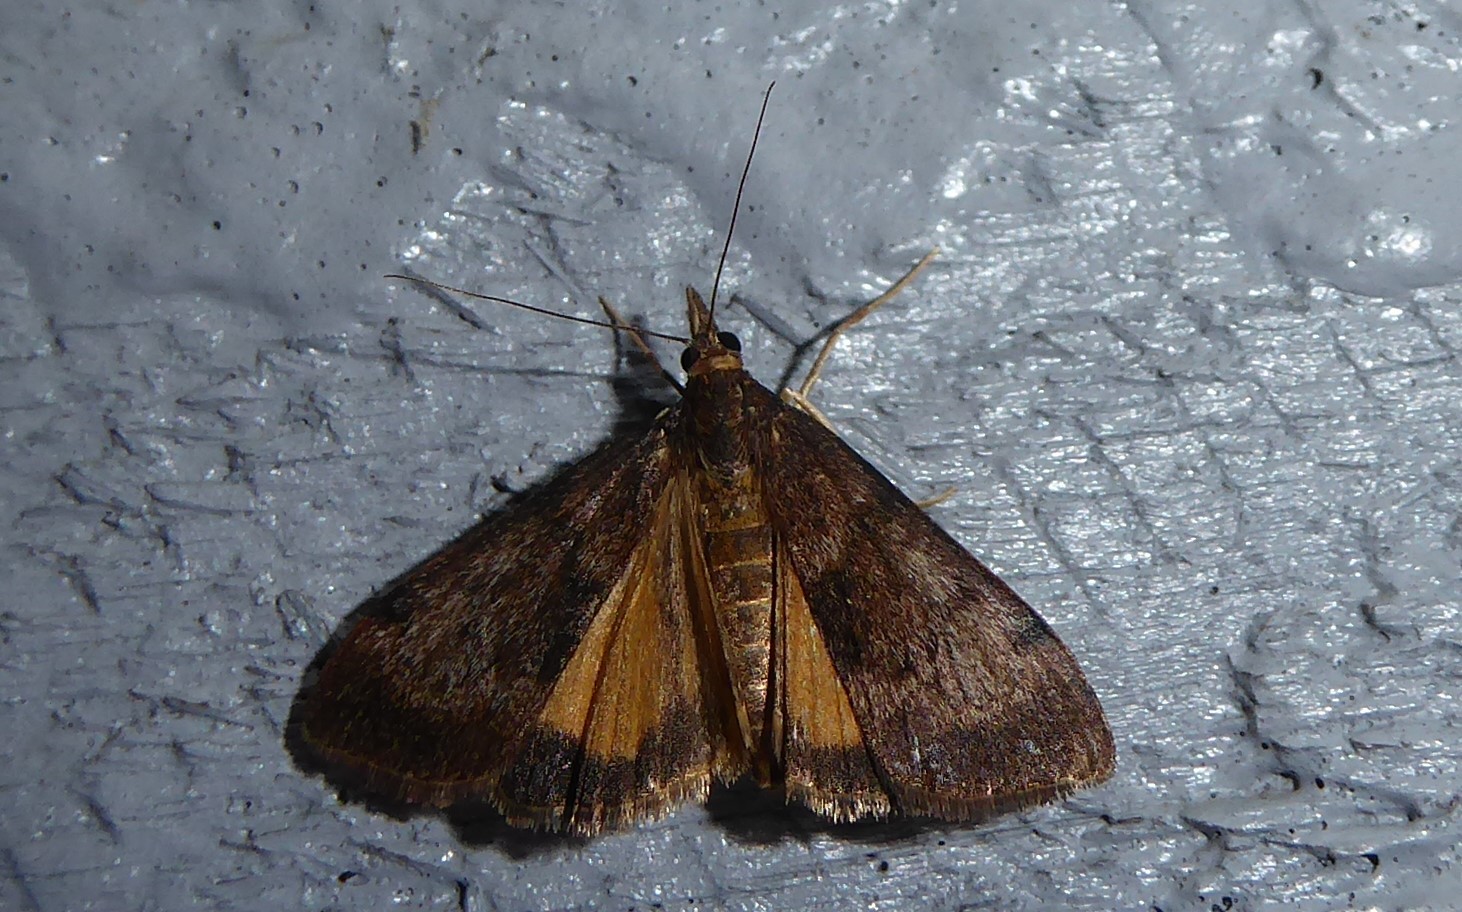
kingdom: Animalia
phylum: Arthropoda
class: Insecta
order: Lepidoptera
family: Crambidae
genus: Uresiphita
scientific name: Uresiphita
